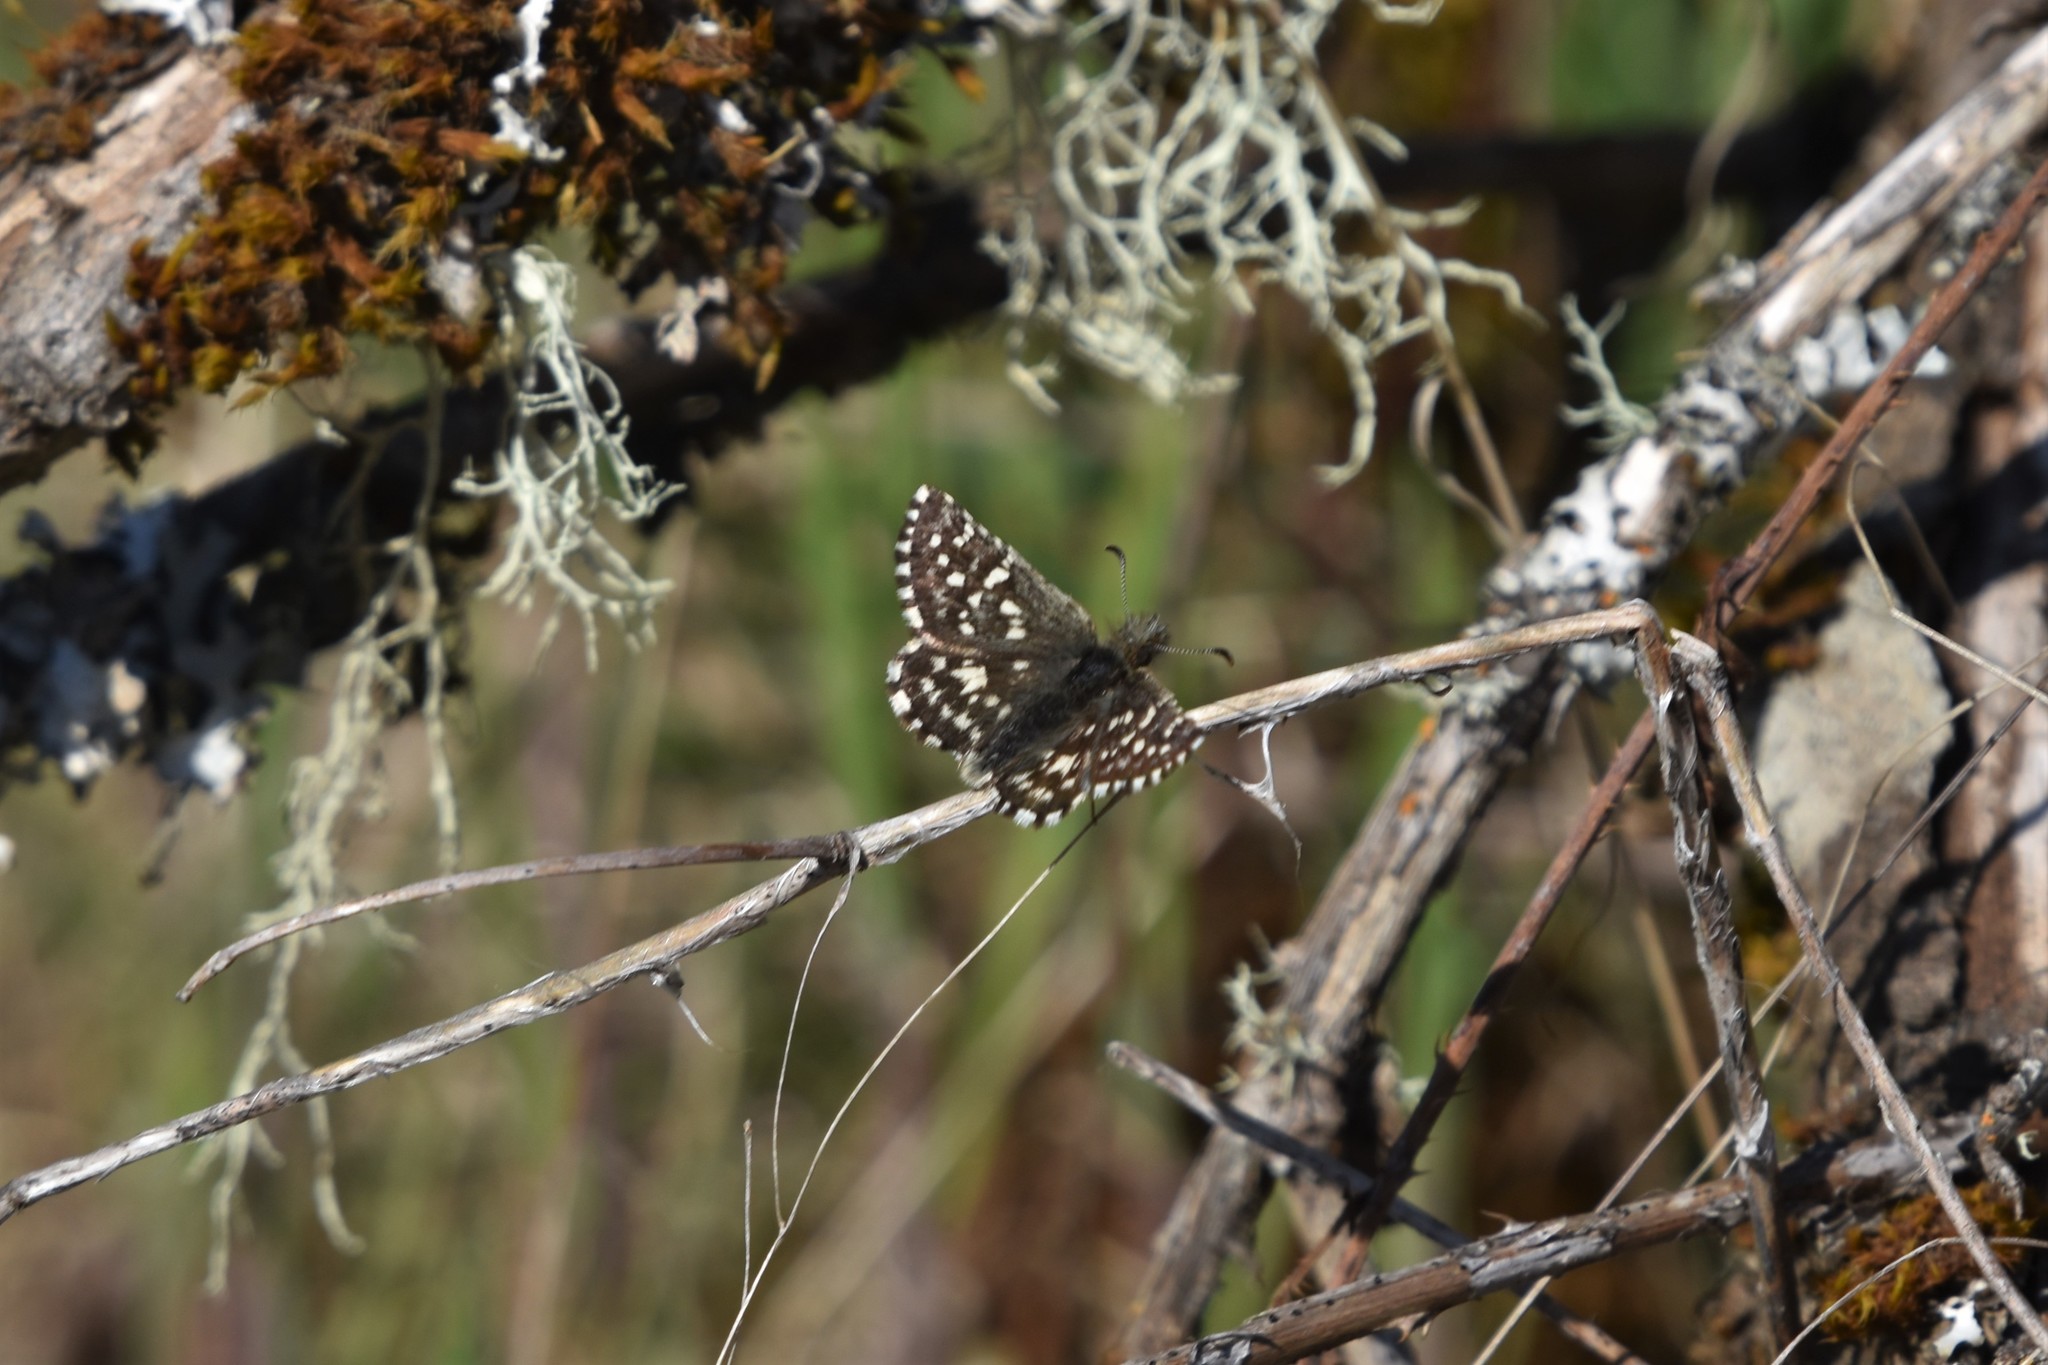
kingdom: Animalia
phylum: Arthropoda
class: Insecta
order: Lepidoptera
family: Hesperiidae
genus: Pyrgus
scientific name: Pyrgus ruralis
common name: Two-banded checkered-skipper
